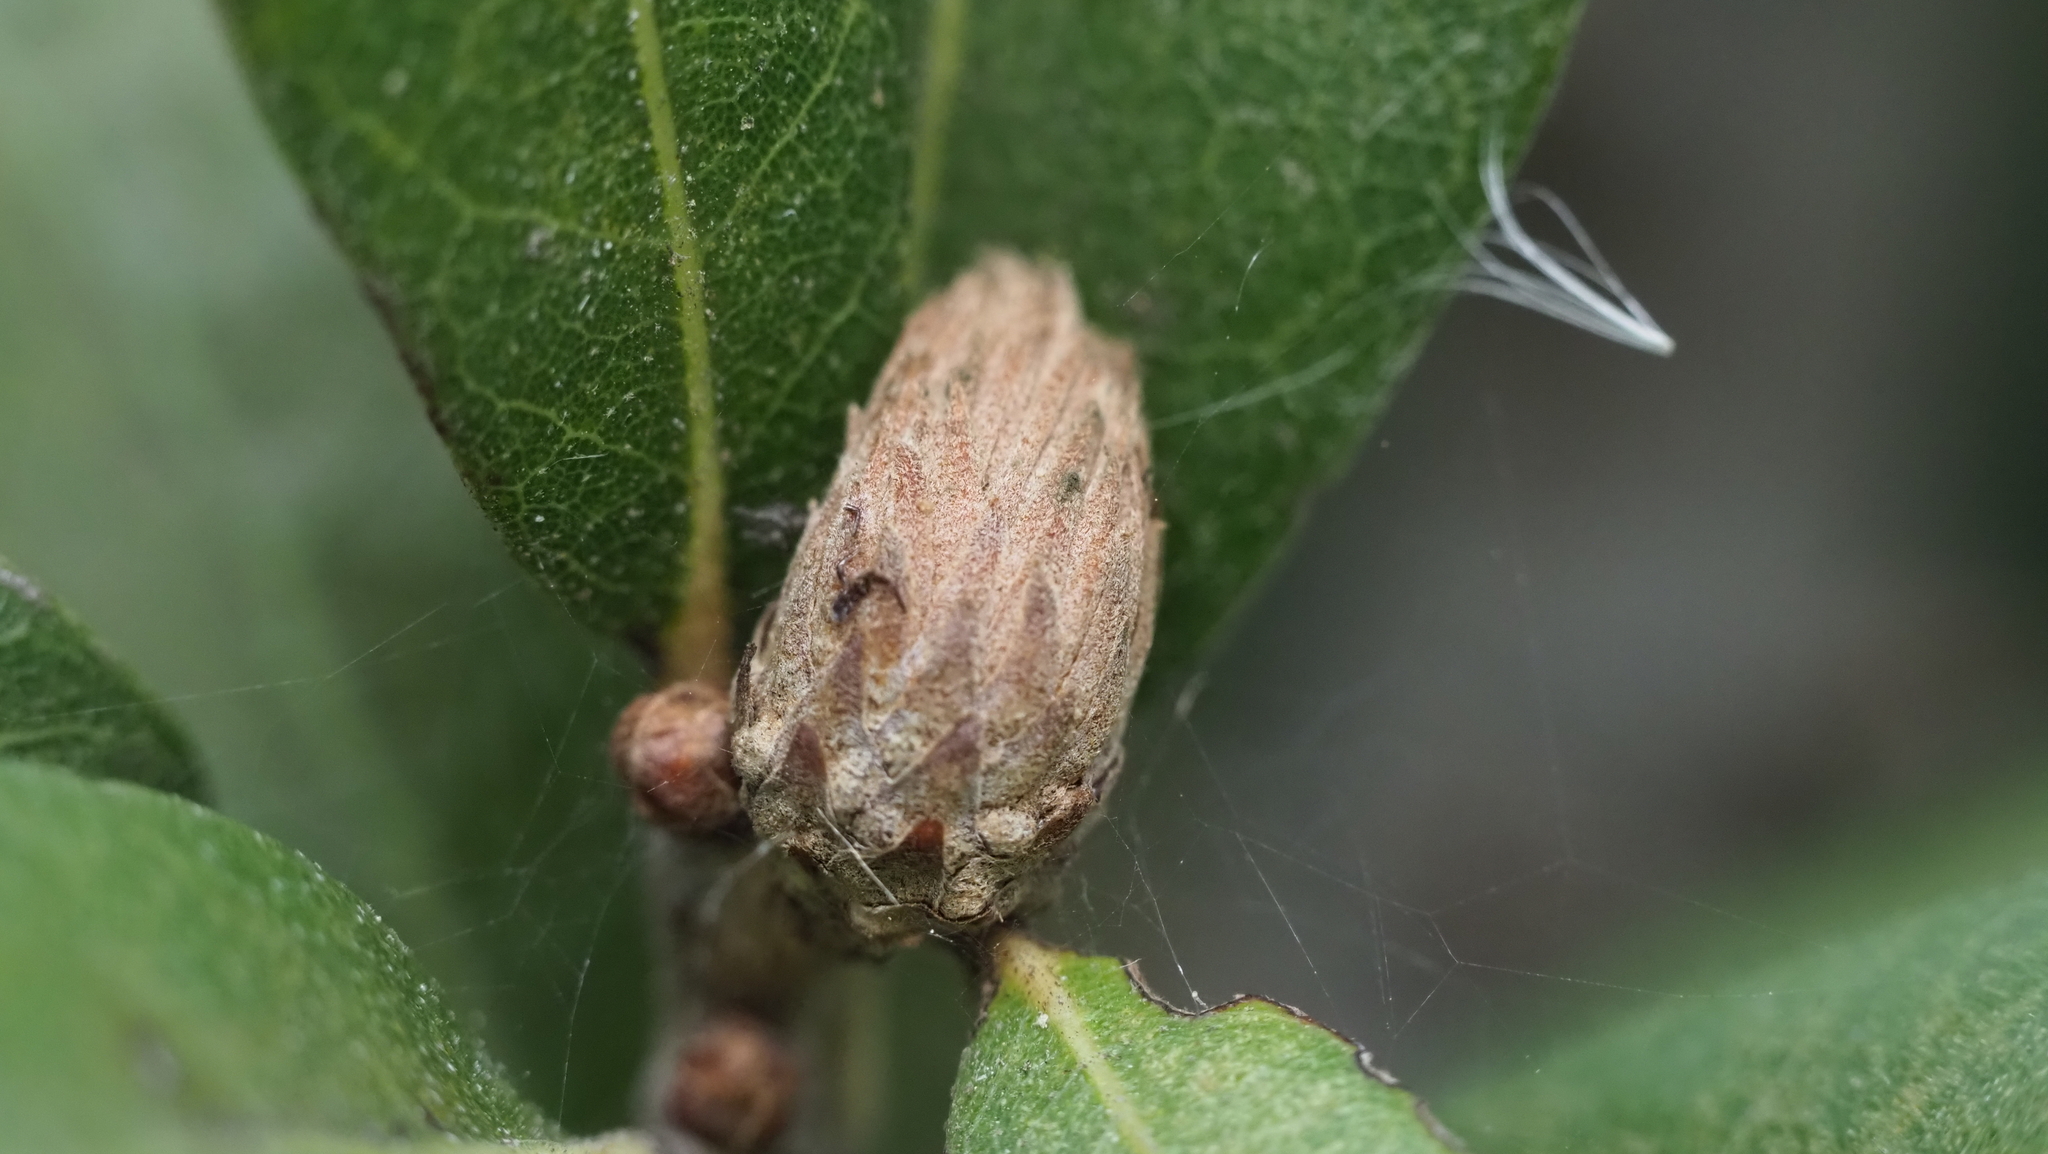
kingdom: Animalia
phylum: Arthropoda
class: Insecta
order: Hymenoptera
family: Cynipidae
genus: Andricus
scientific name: Andricus quercusfoliatus
